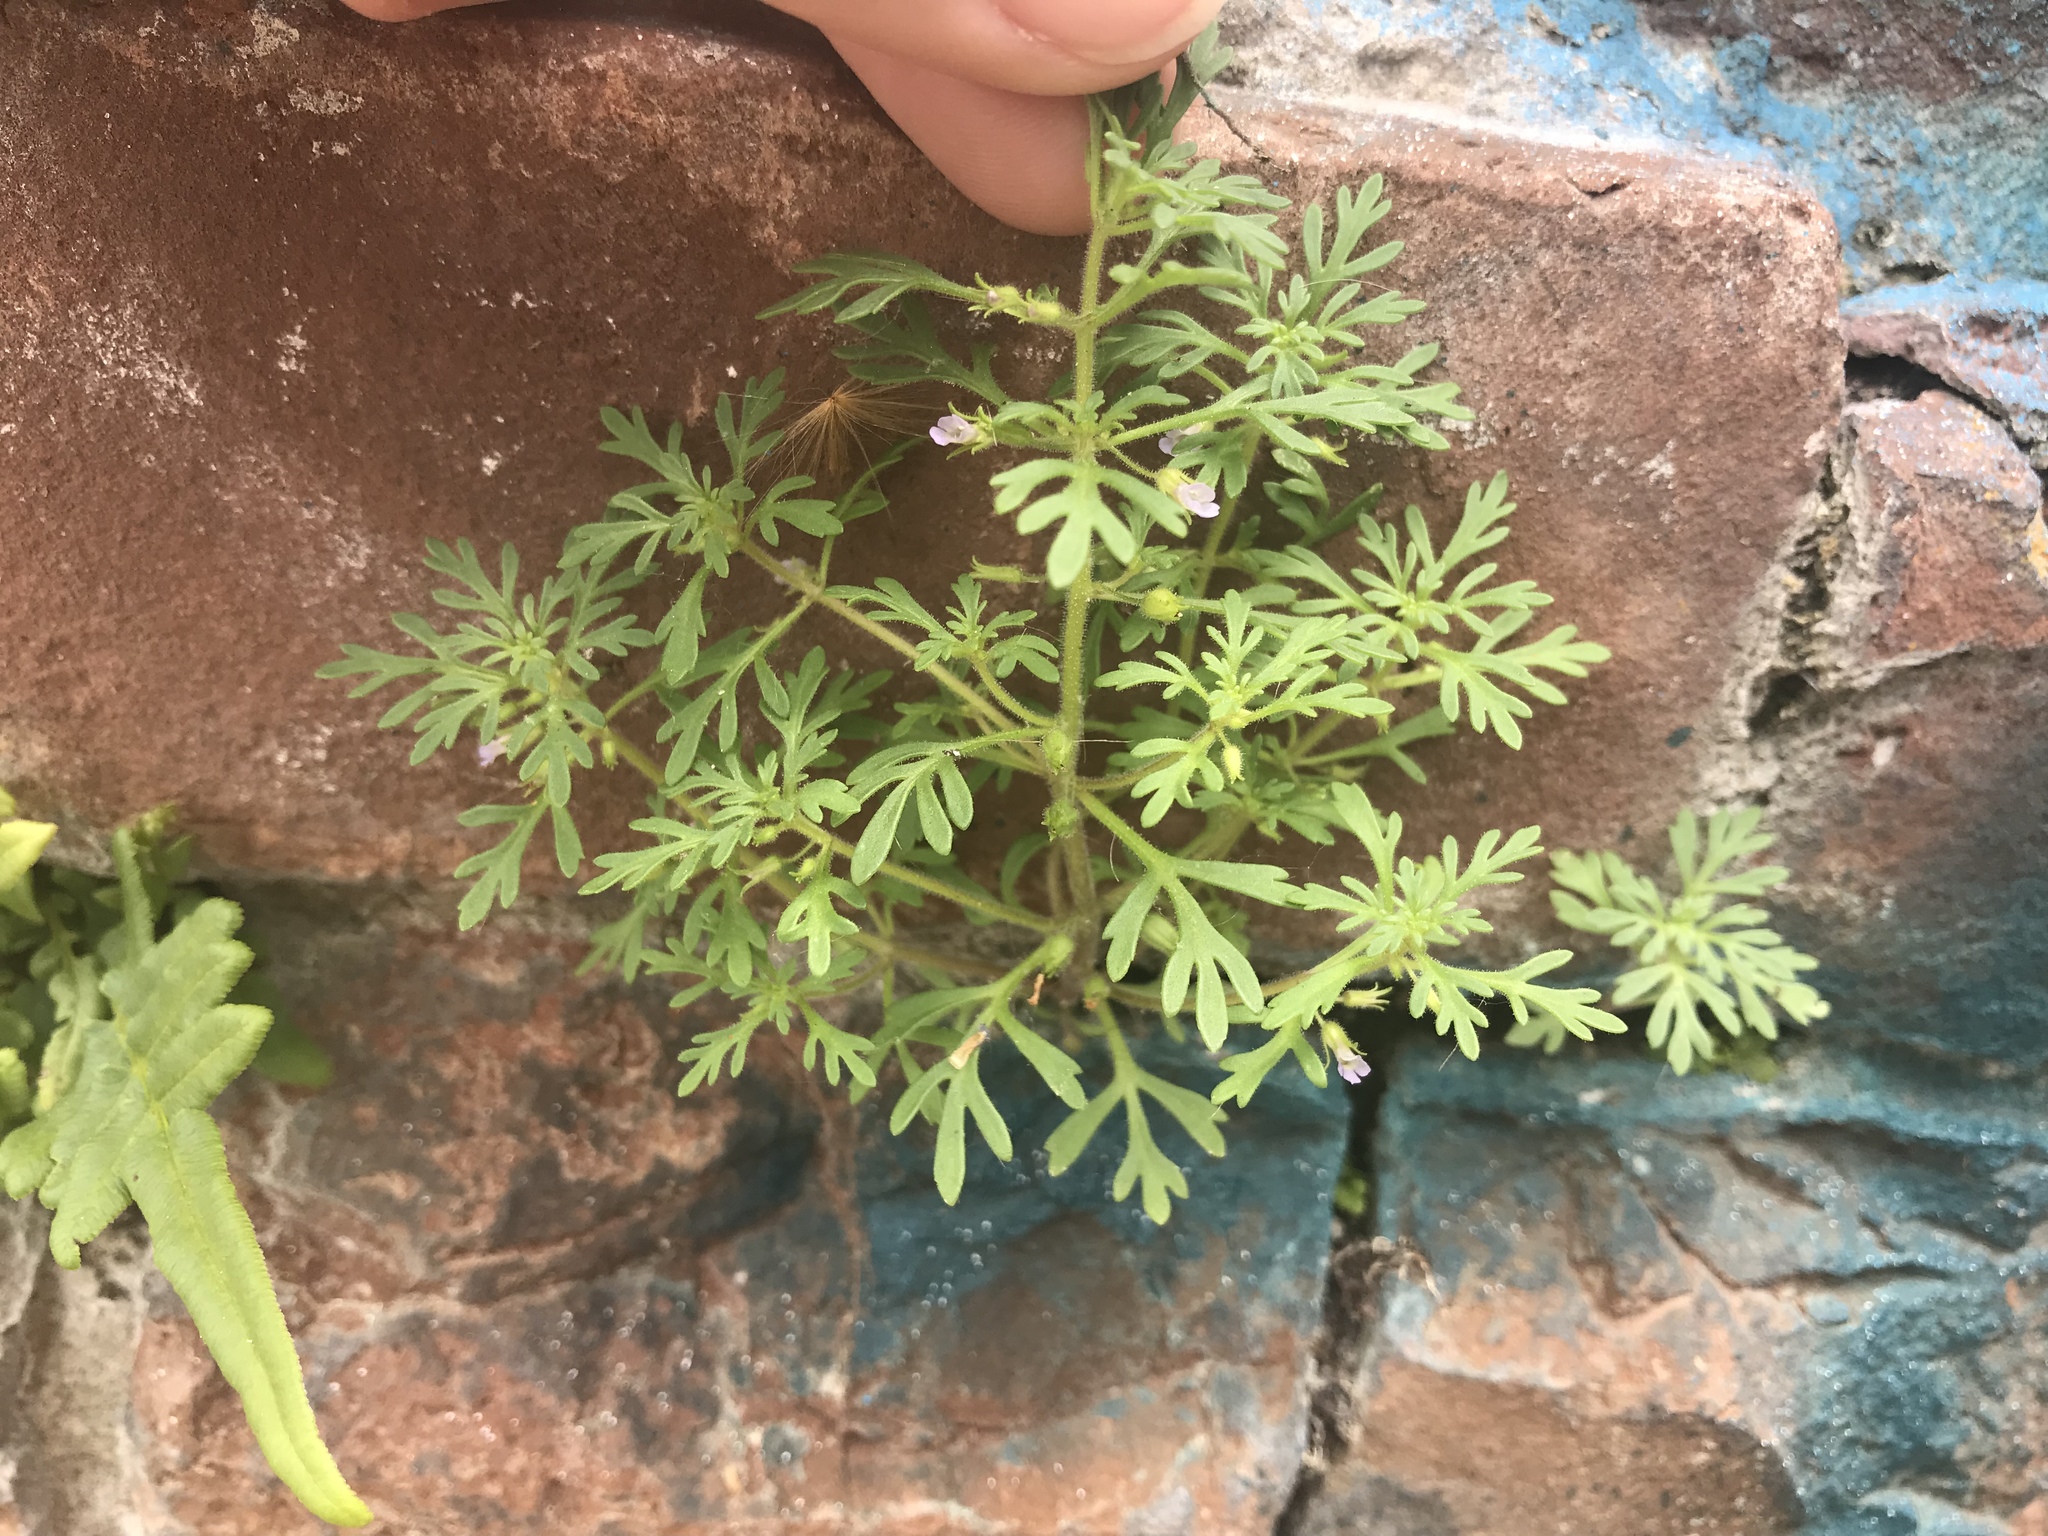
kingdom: Plantae
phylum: Tracheophyta
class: Magnoliopsida
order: Lamiales
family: Plantaginaceae
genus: Leucospora
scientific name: Leucospora multifida
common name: Narrow-leaf paleseed
